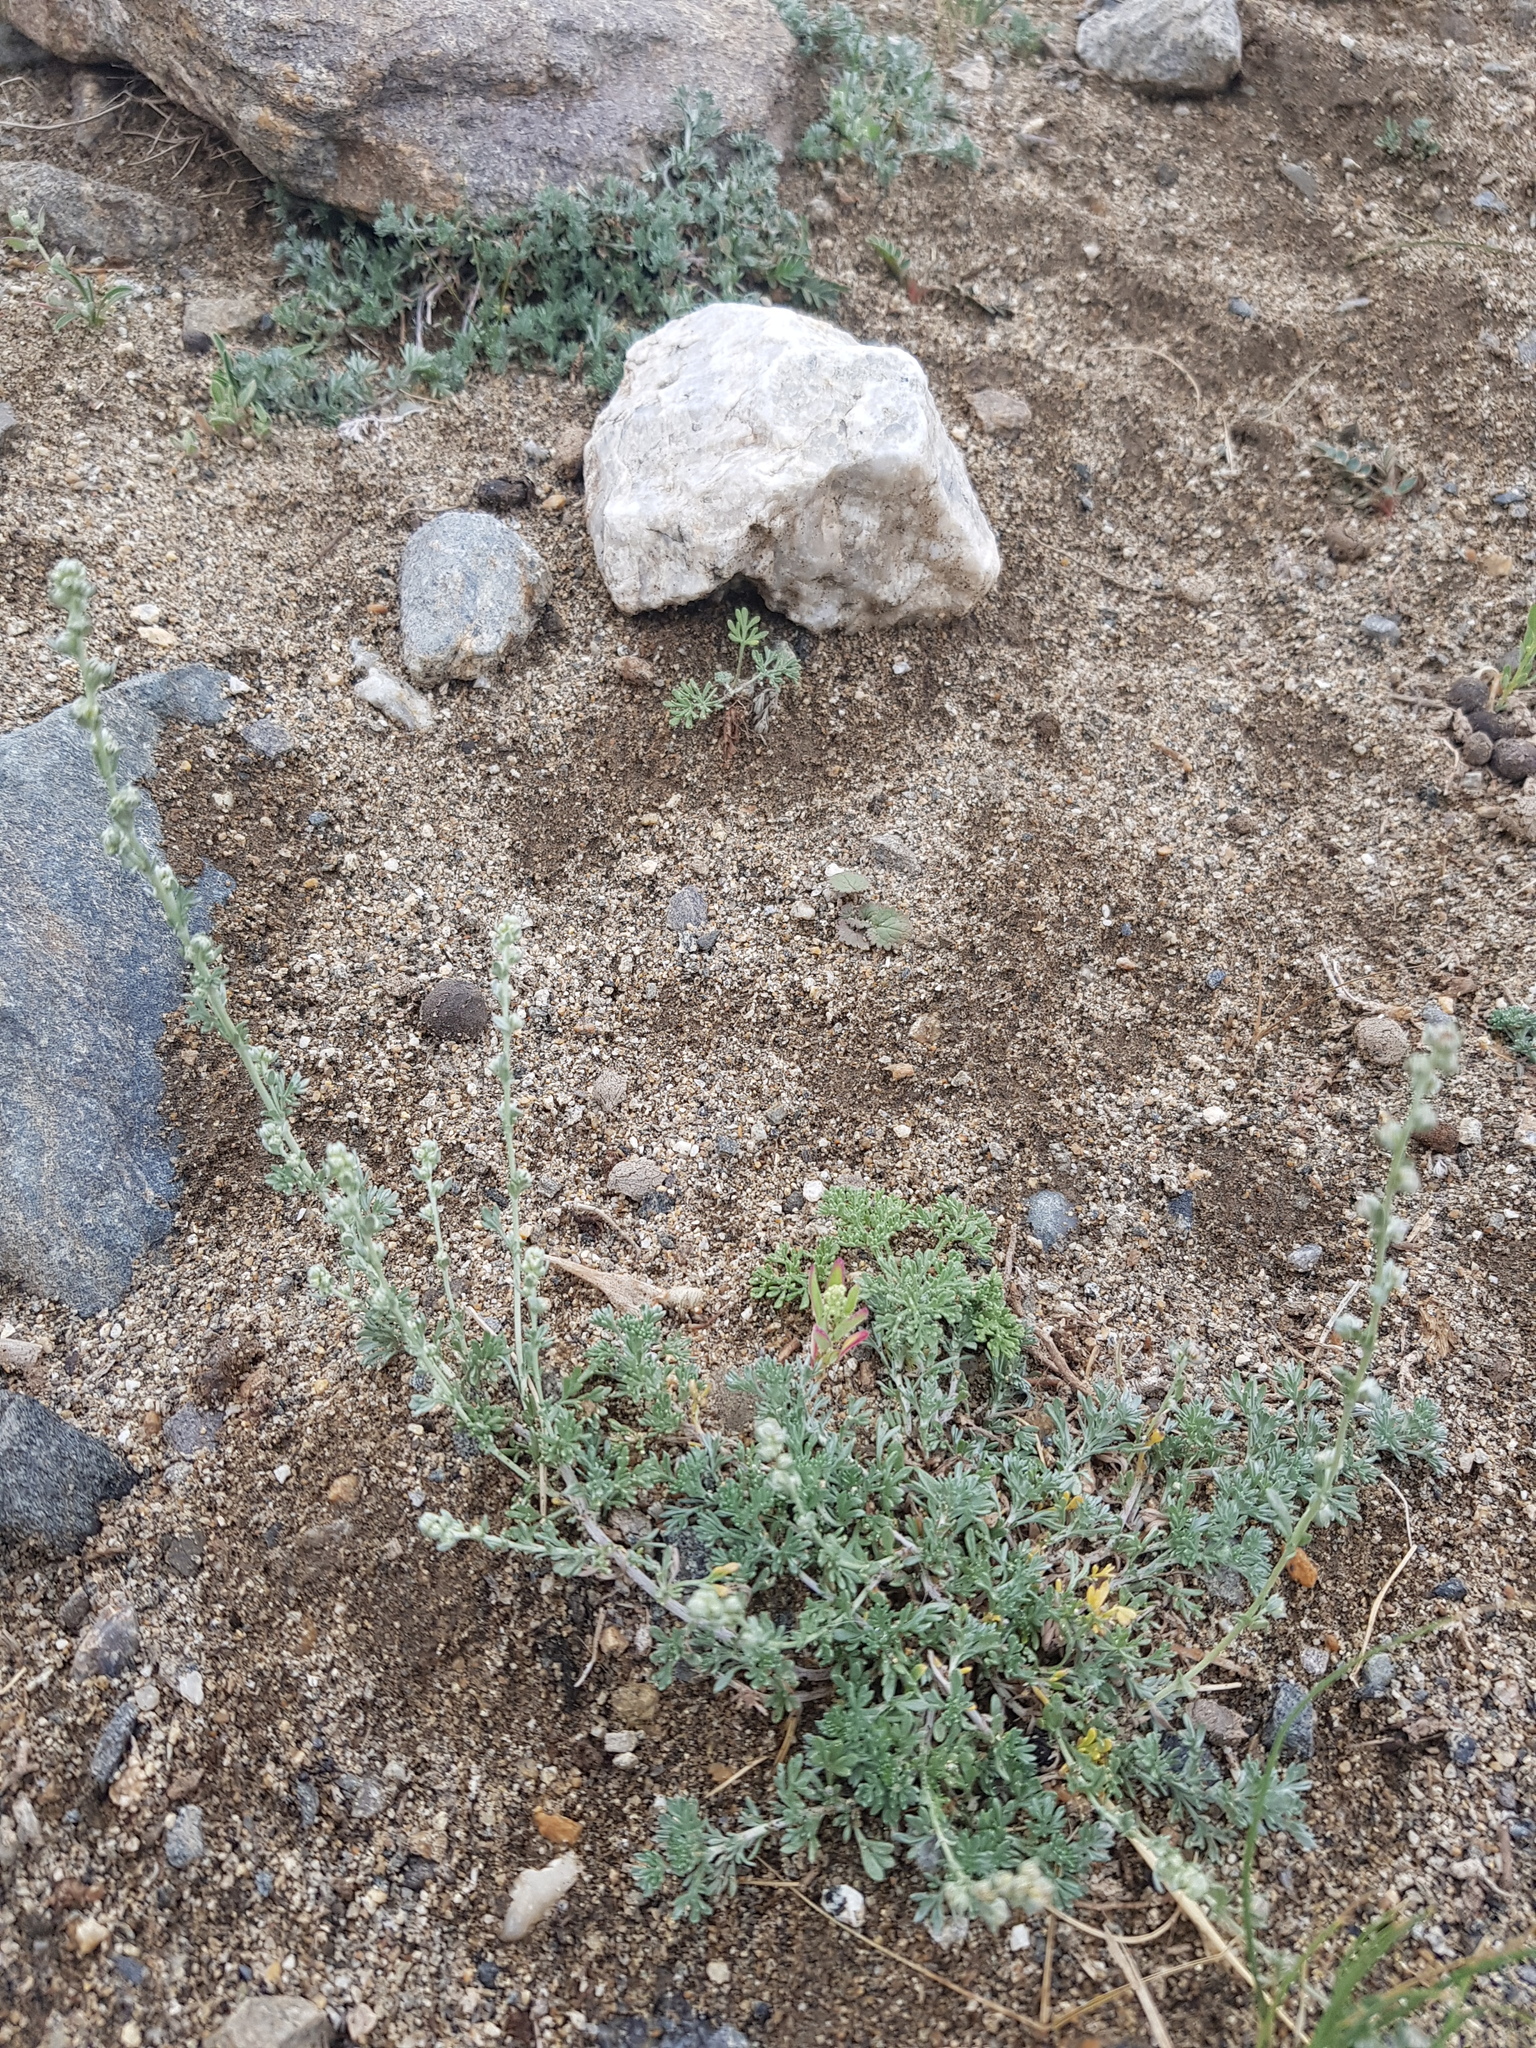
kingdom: Plantae
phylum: Tracheophyta
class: Magnoliopsida
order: Asterales
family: Asteraceae
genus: Artemisia
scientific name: Artemisia frigida
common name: Prairie sagewort
